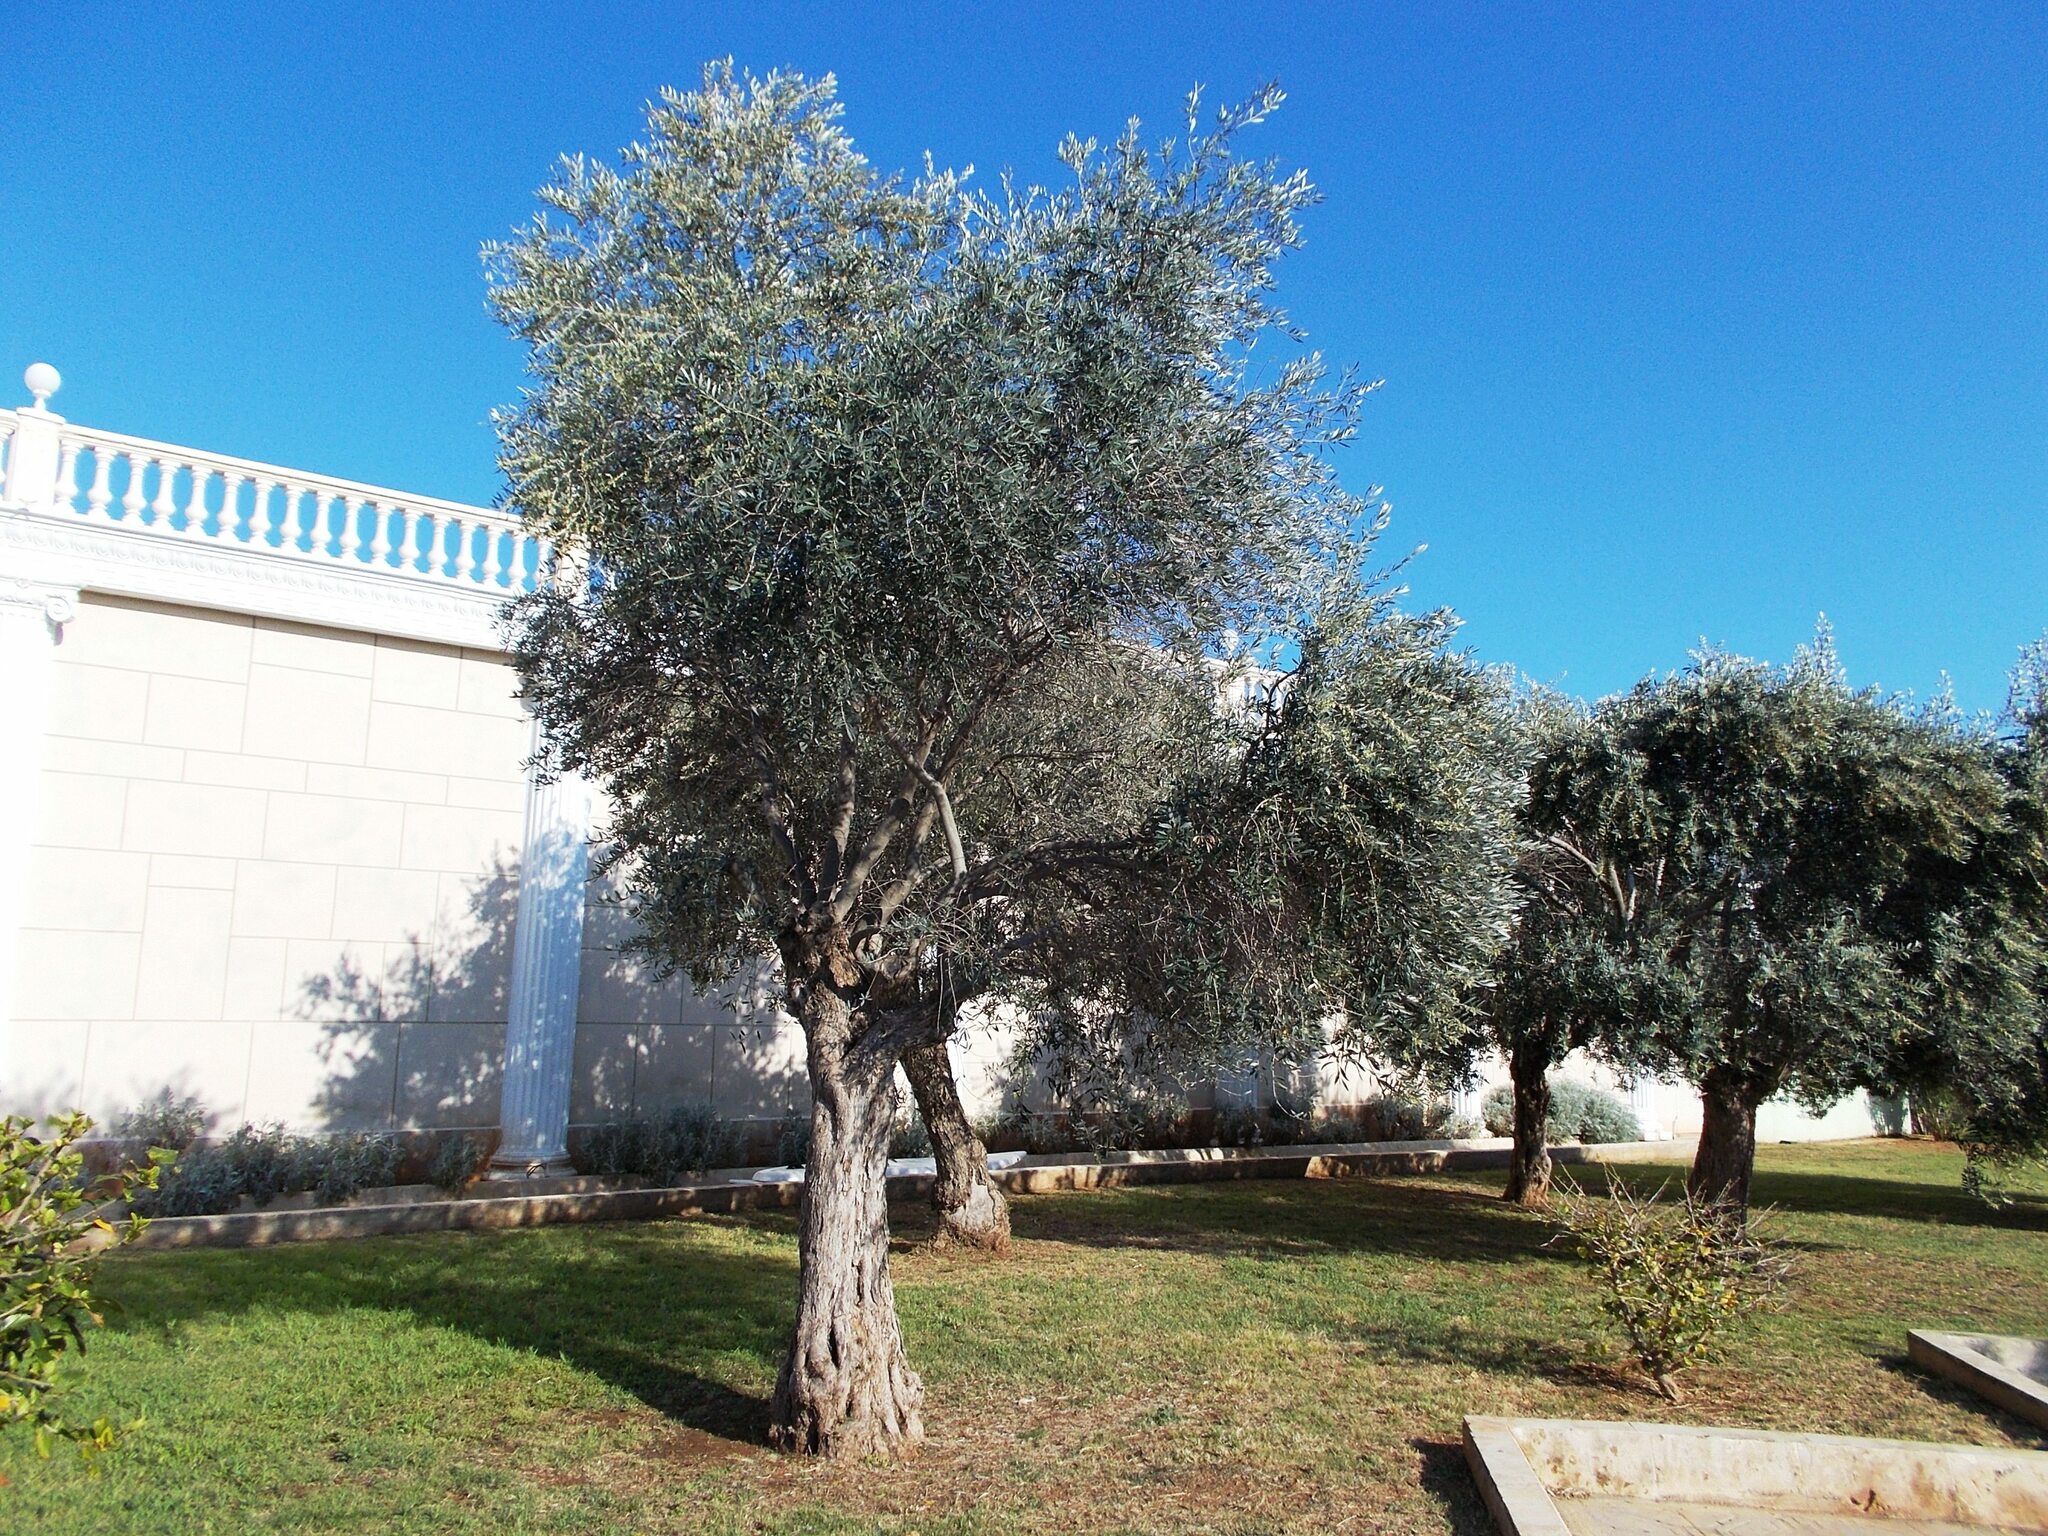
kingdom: Plantae
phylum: Tracheophyta
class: Magnoliopsida
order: Lamiales
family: Oleaceae
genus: Olea
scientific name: Olea europaea
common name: Olive
